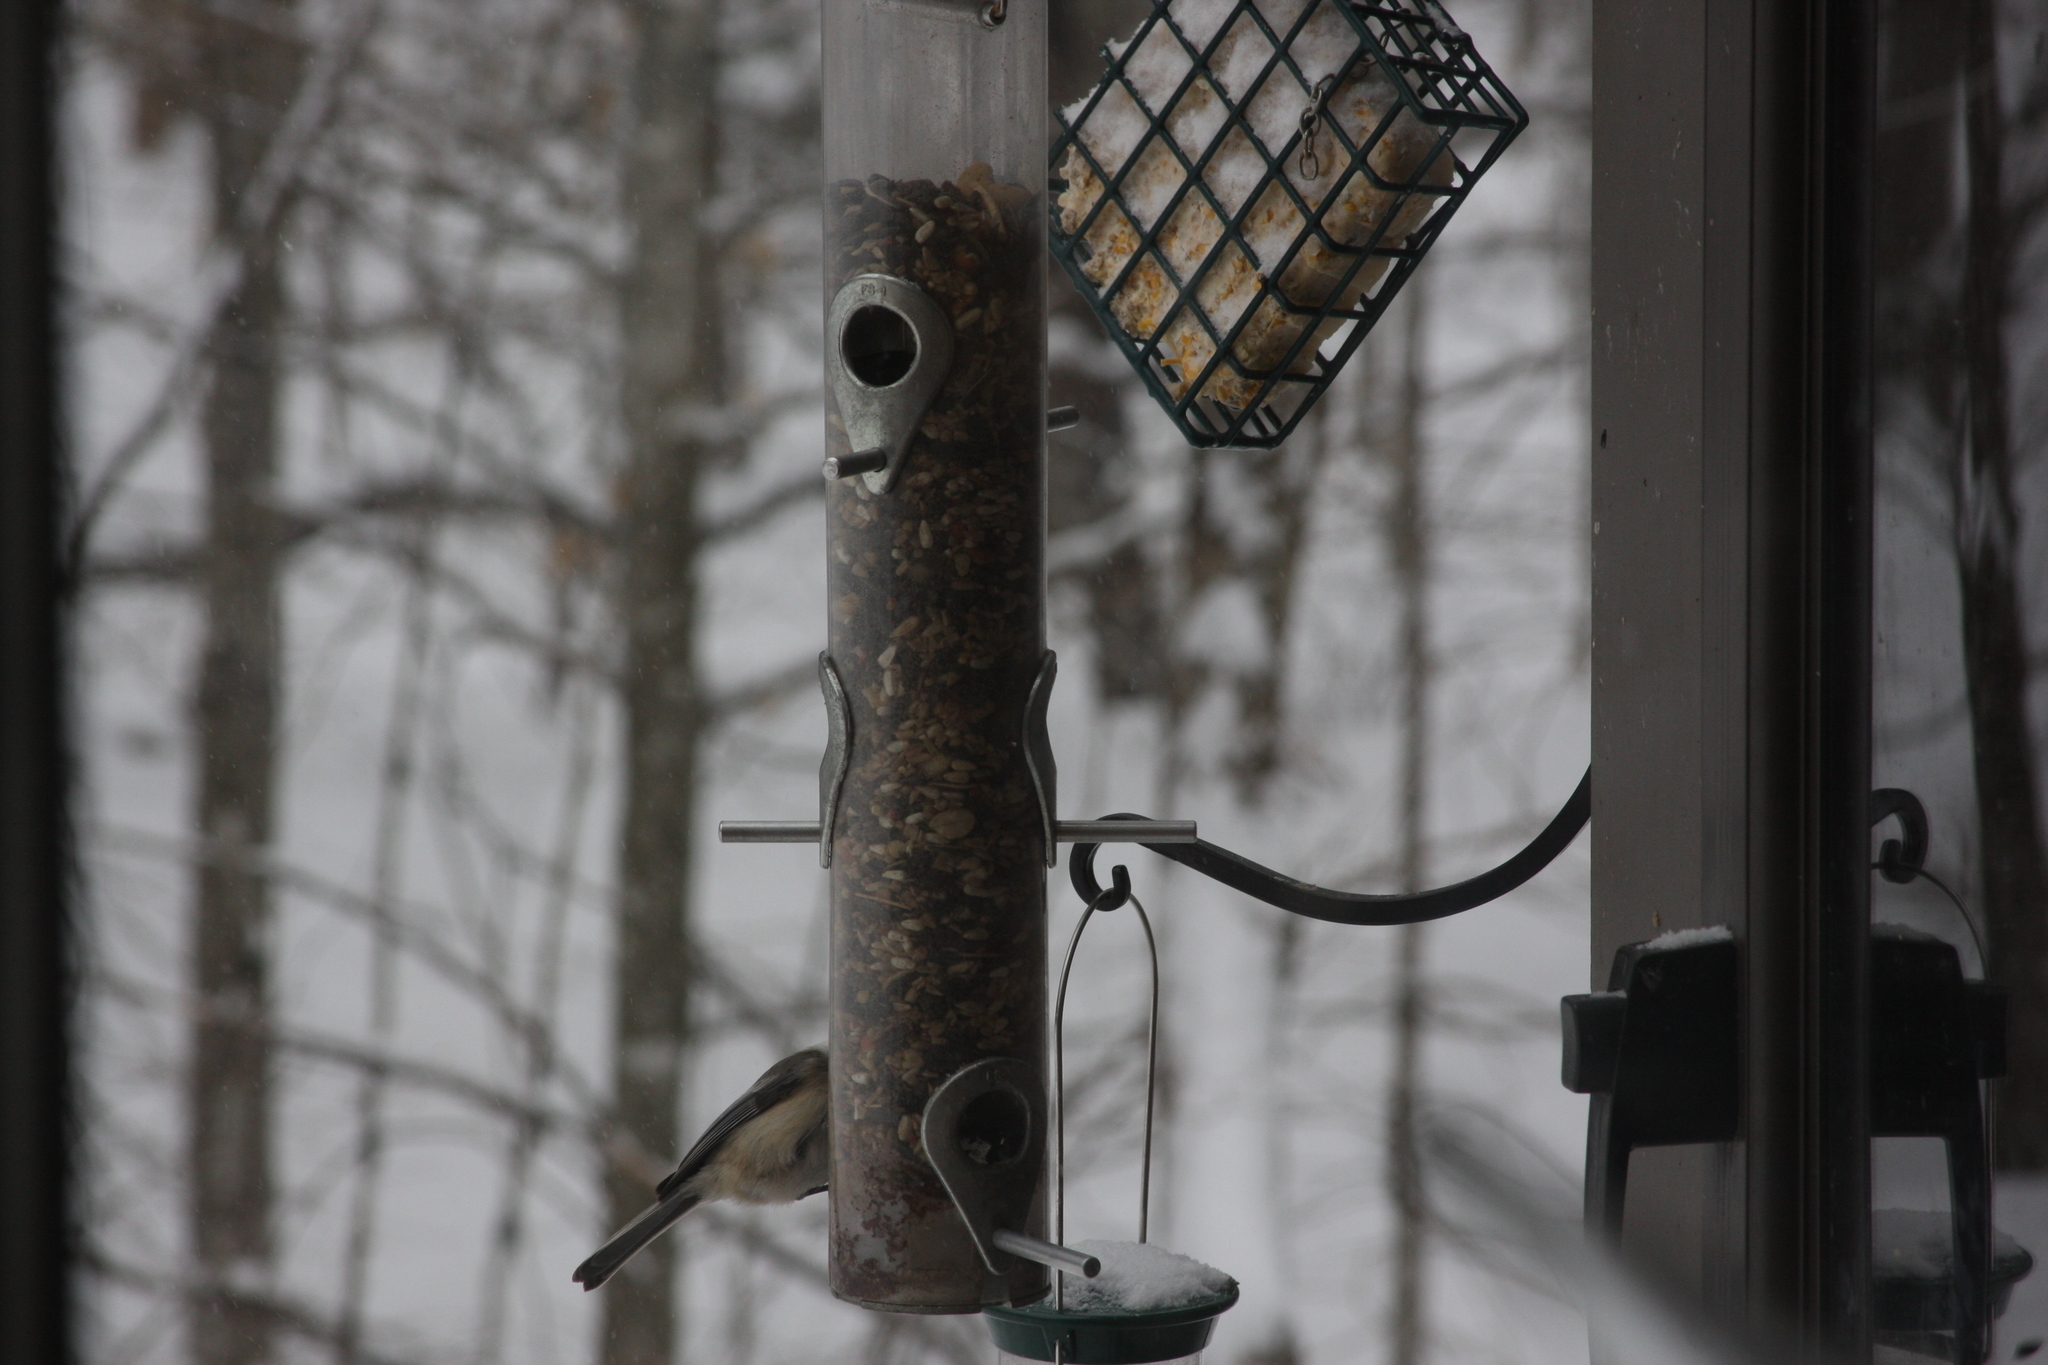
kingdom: Animalia
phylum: Chordata
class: Aves
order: Passeriformes
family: Paridae
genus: Poecile
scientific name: Poecile atricapillus
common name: Black-capped chickadee
